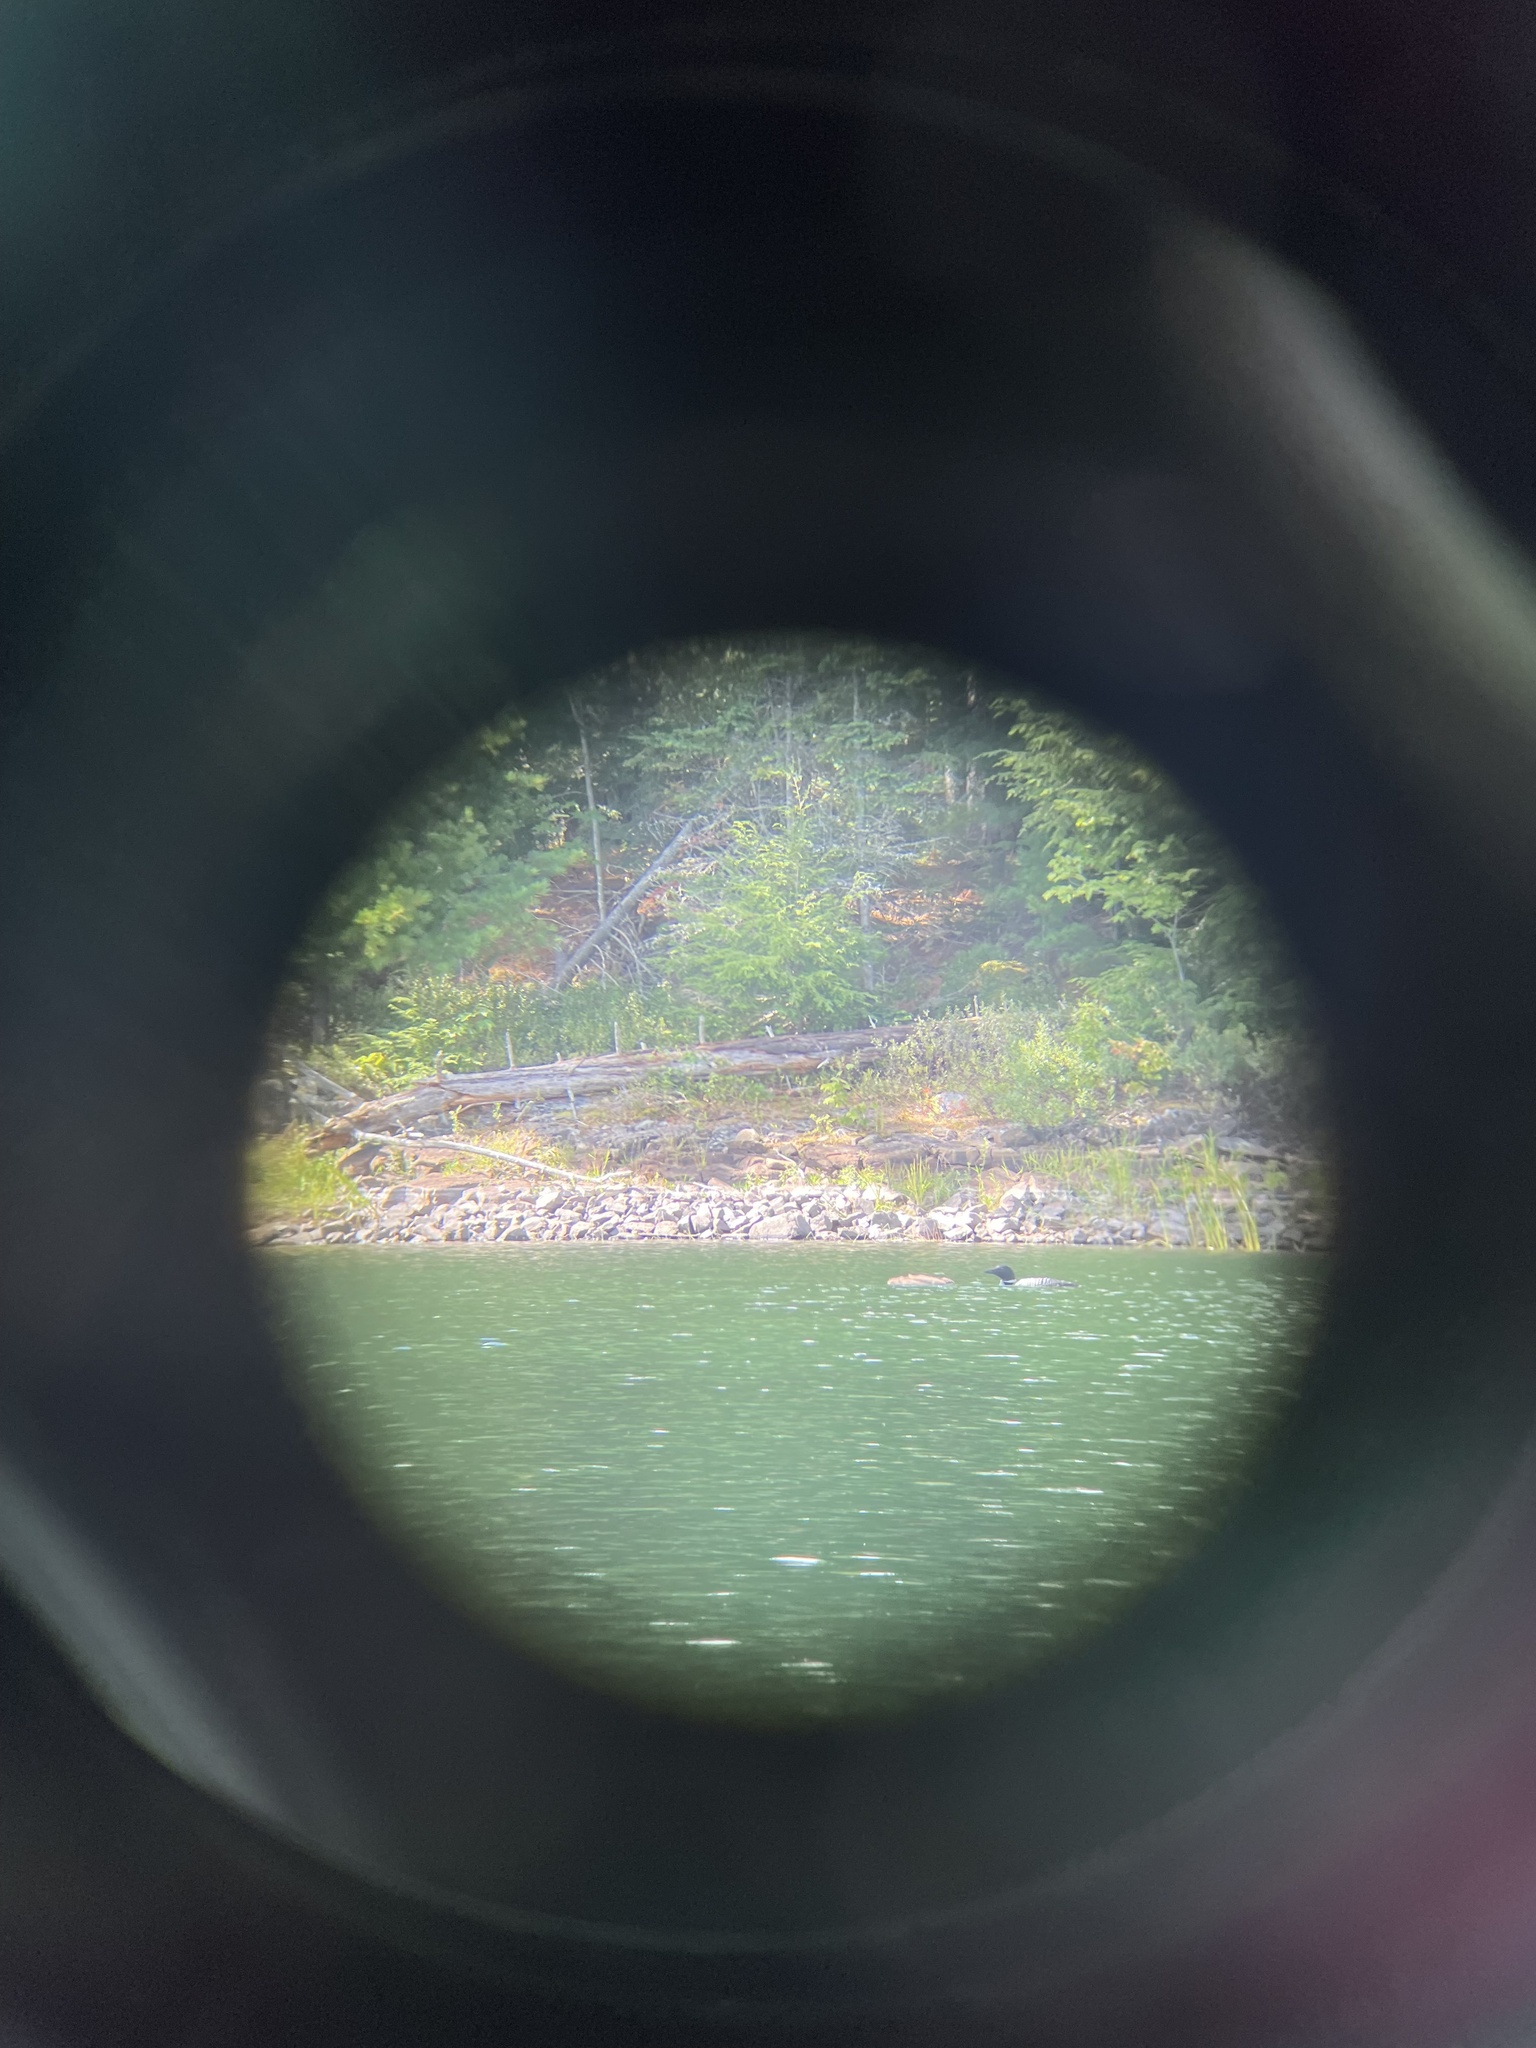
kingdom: Animalia
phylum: Chordata
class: Aves
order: Gaviiformes
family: Gaviidae
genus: Gavia
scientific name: Gavia immer
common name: Common loon
